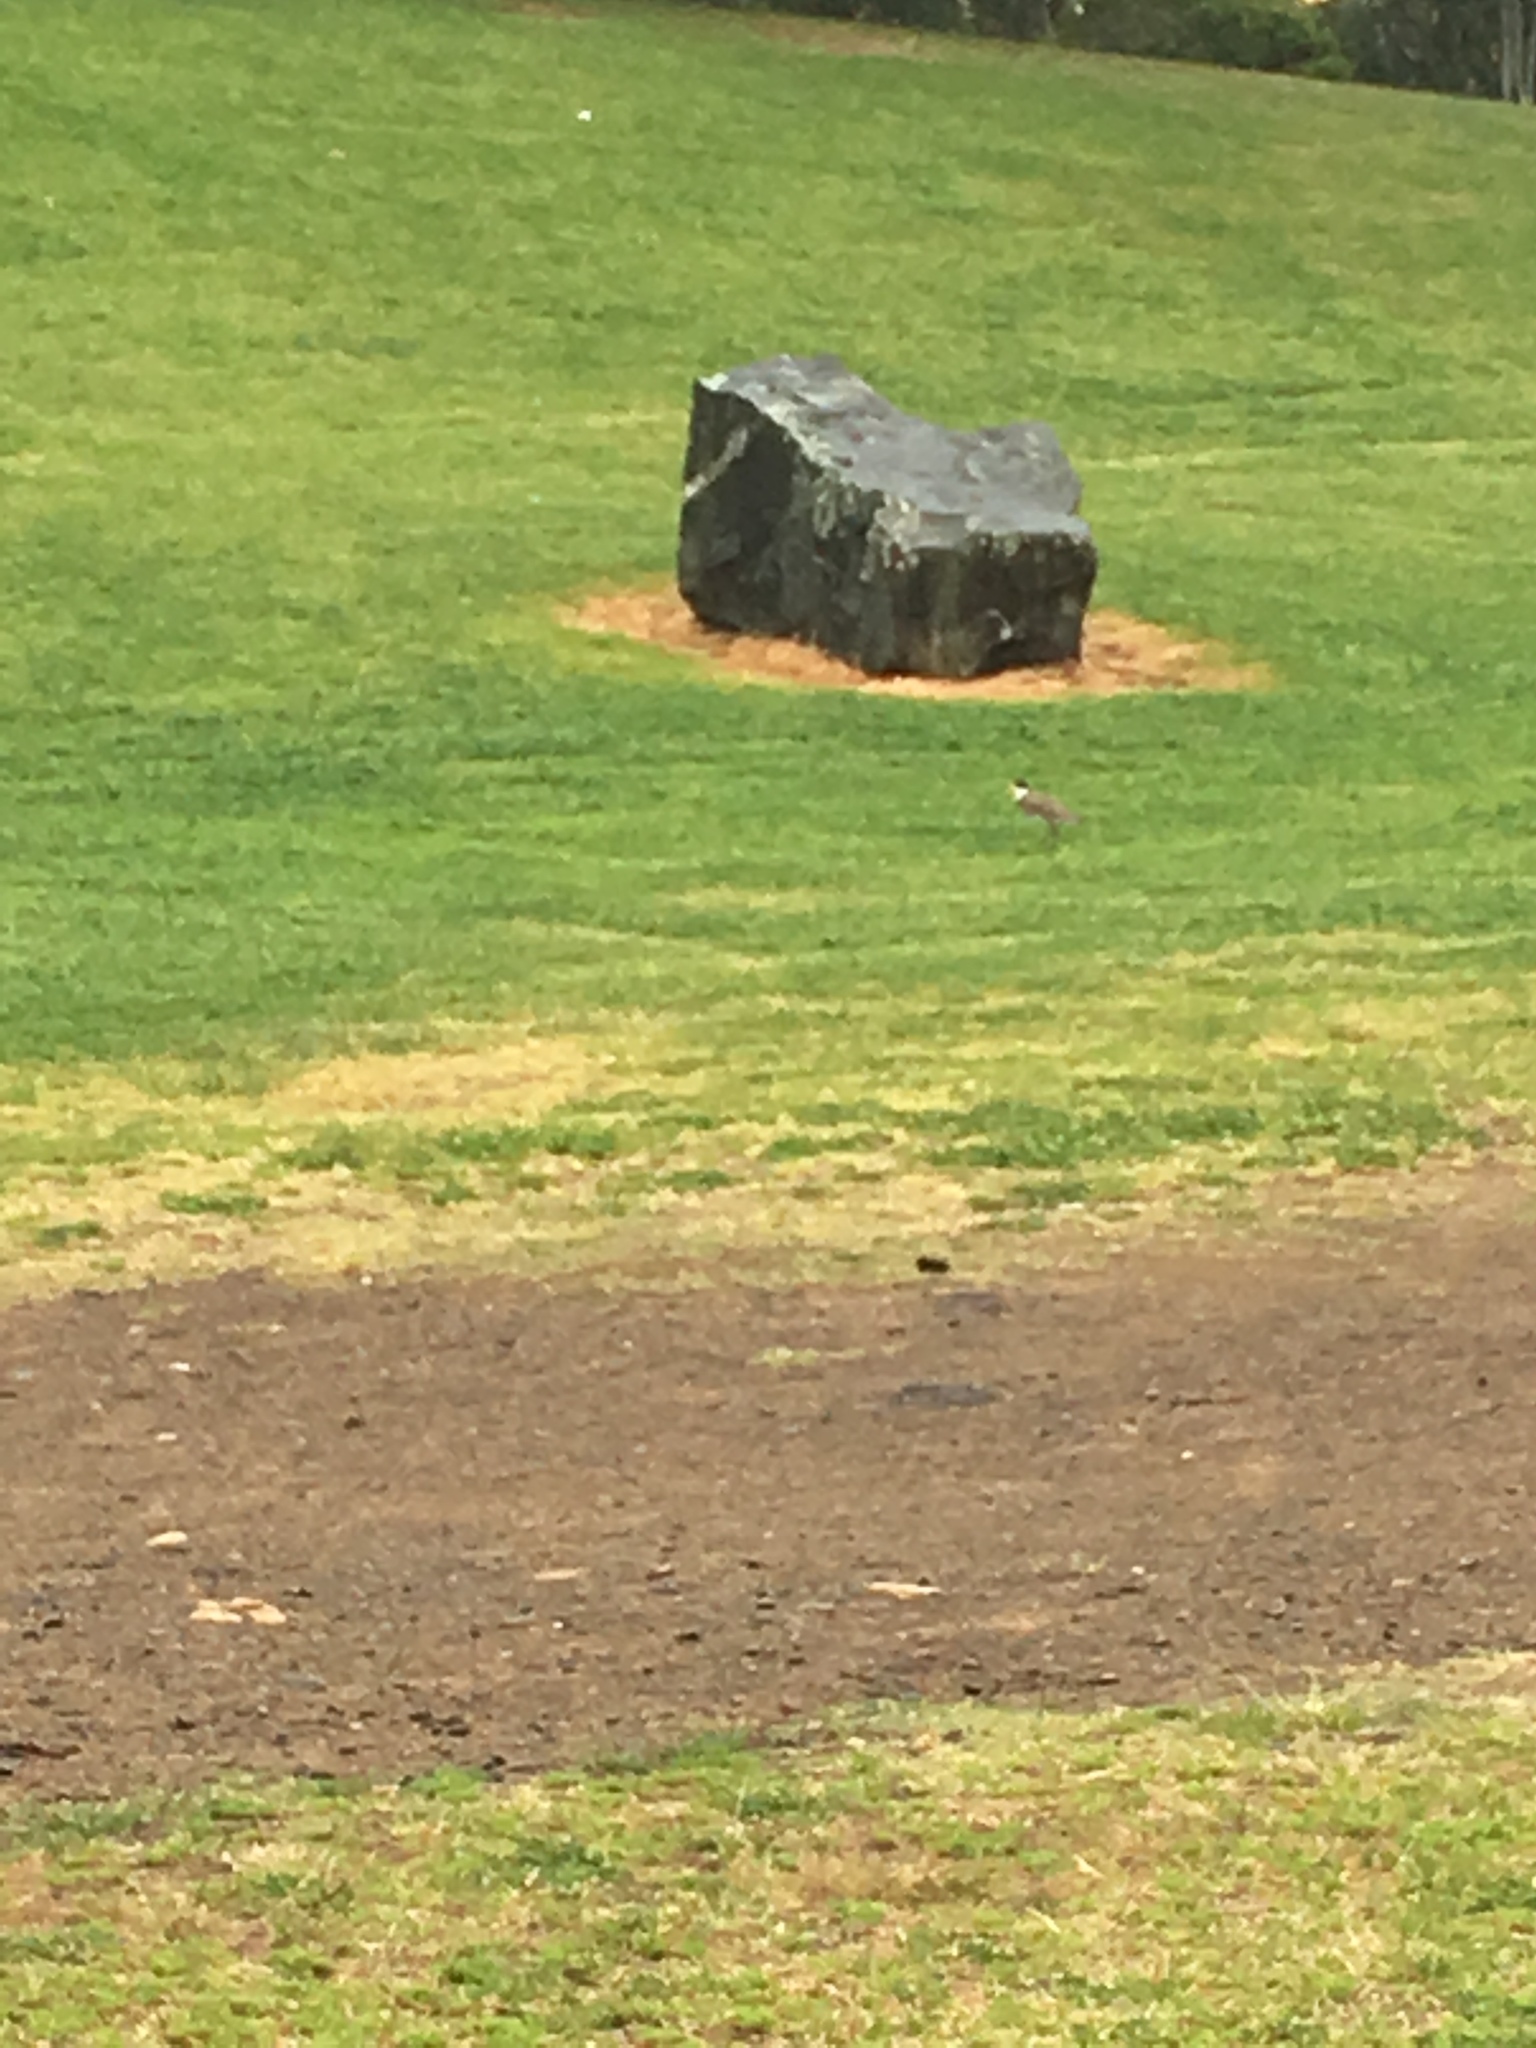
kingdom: Animalia
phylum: Chordata
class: Aves
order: Charadriiformes
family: Charadriidae
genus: Vanellus
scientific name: Vanellus miles
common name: Masked lapwing
